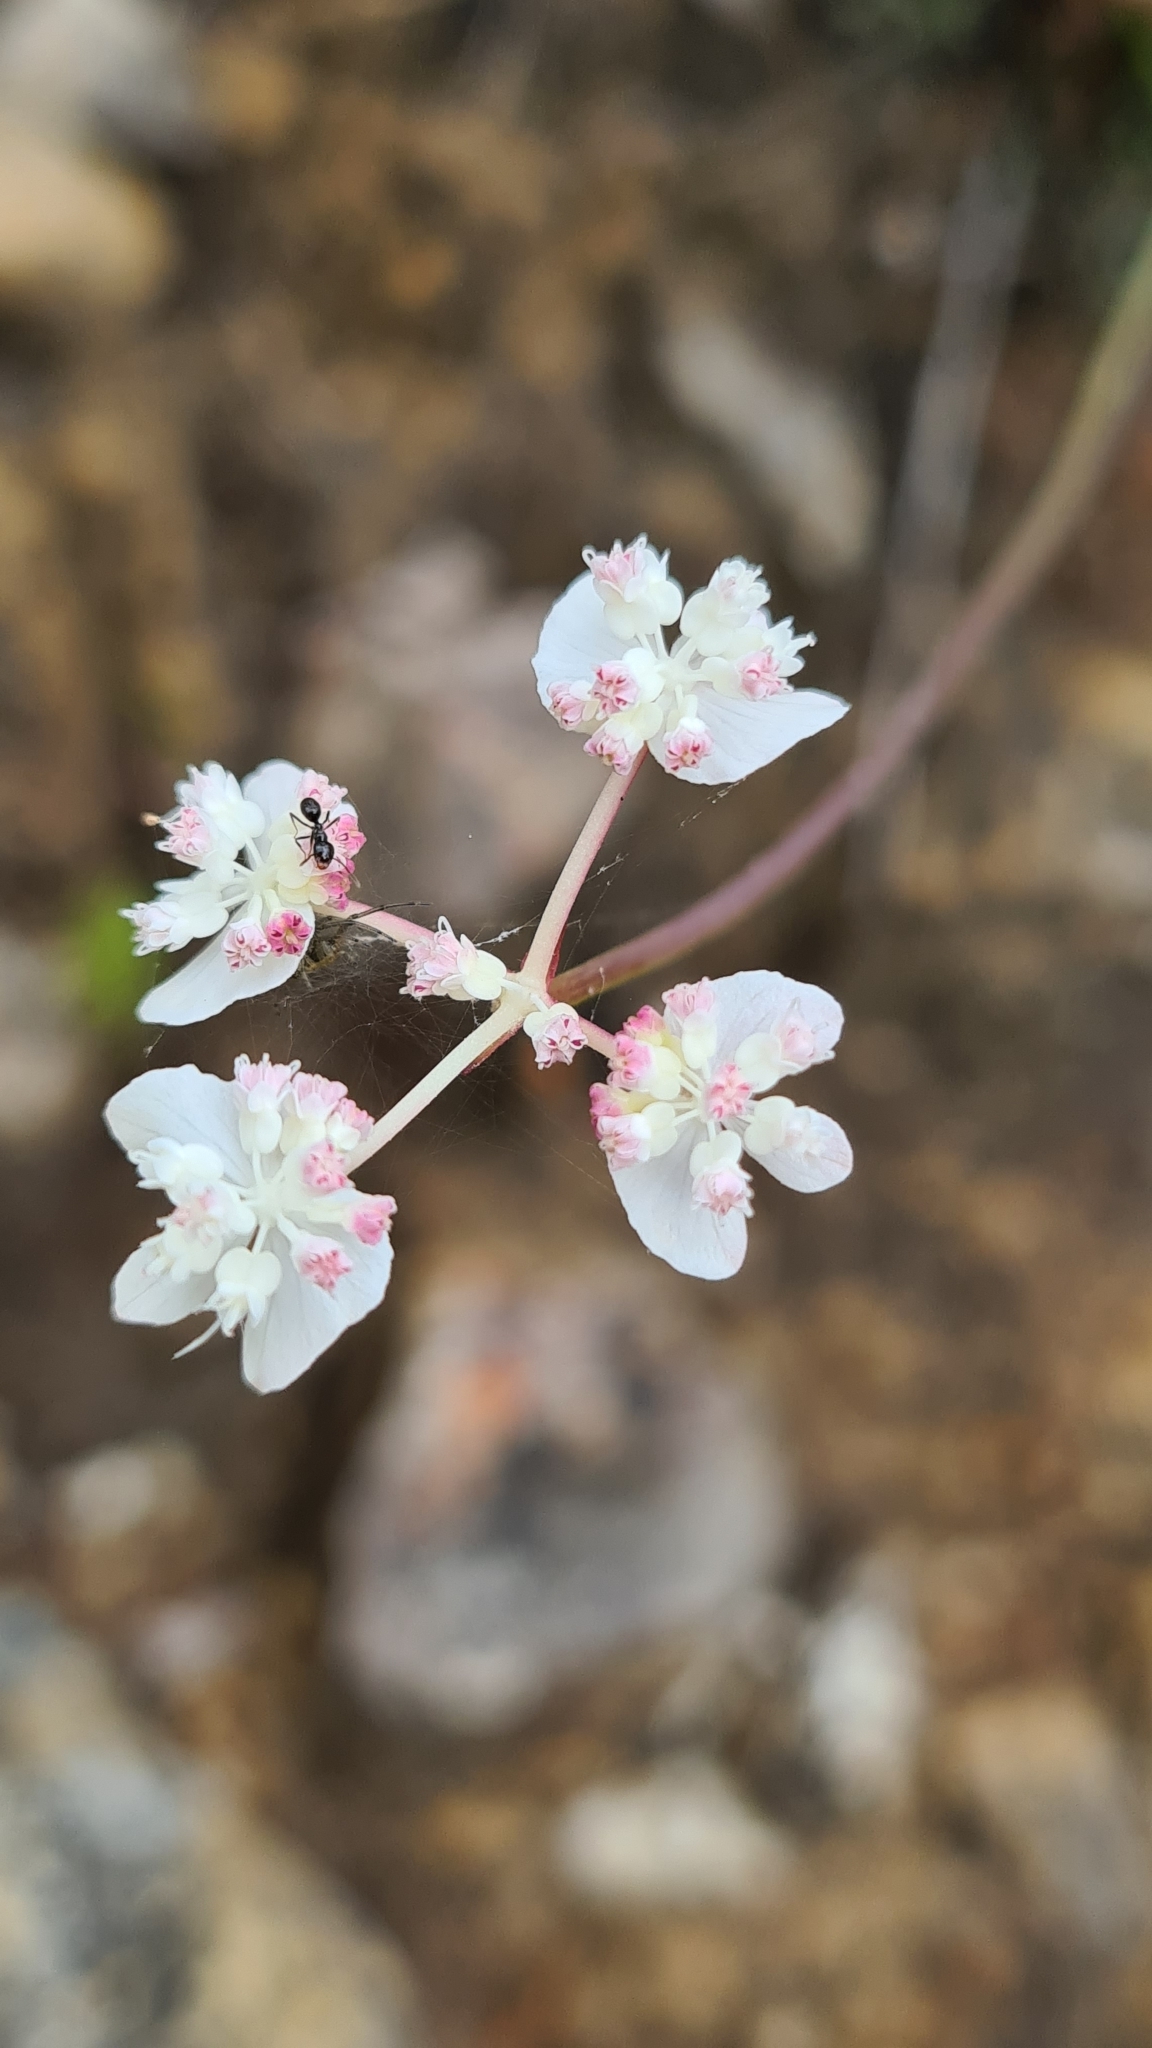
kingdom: Plantae
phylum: Tracheophyta
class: Magnoliopsida
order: Apiales
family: Apiaceae
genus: Xanthosia
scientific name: Xanthosia atkinsoniana
